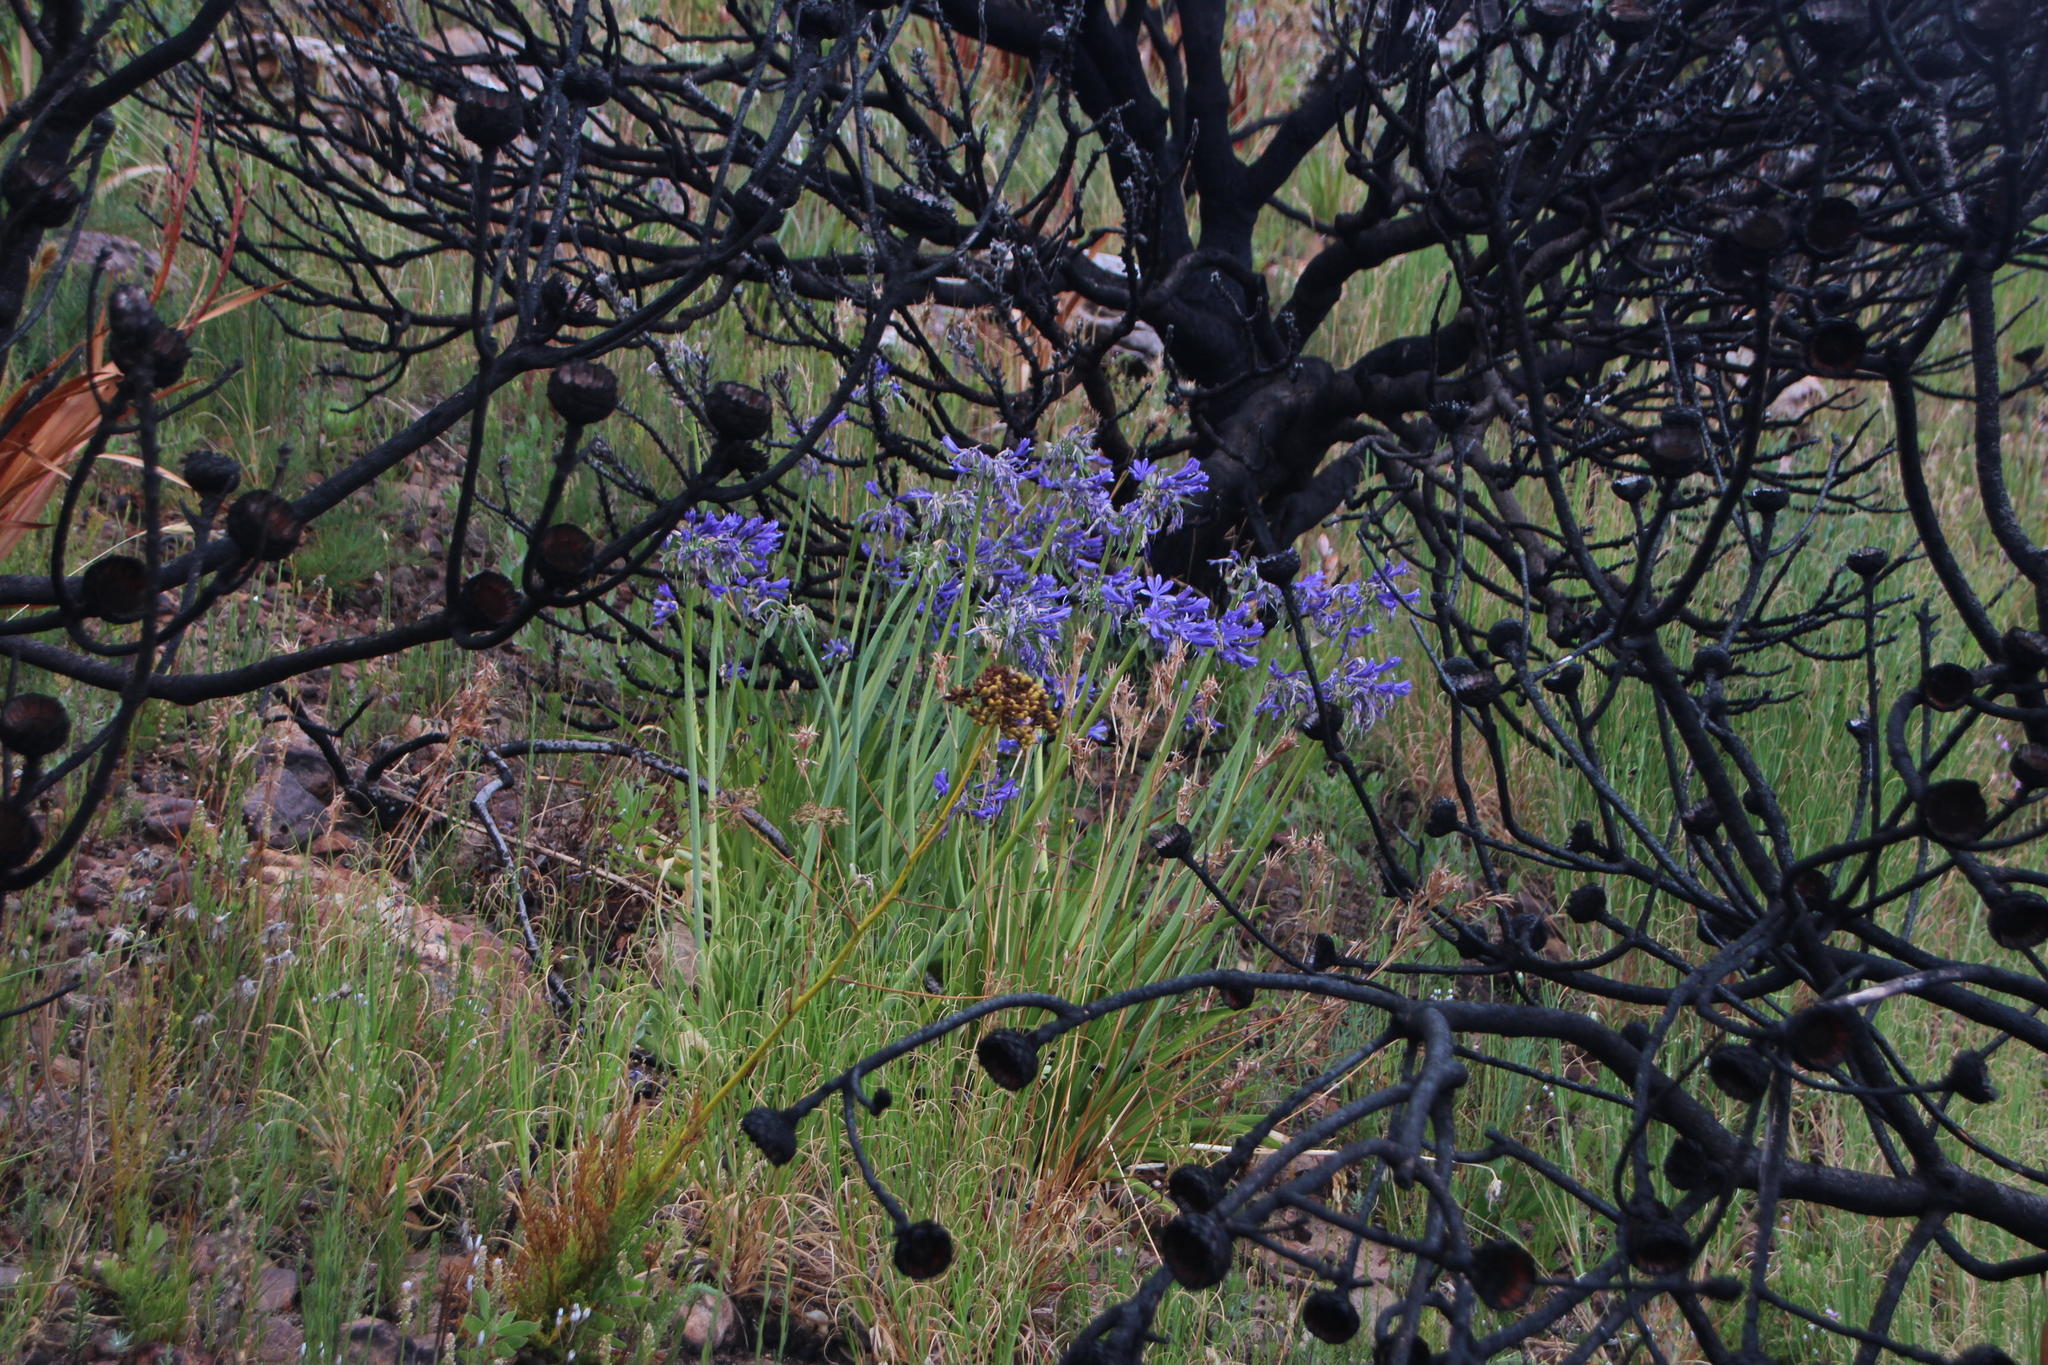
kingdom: Plantae
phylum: Tracheophyta
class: Liliopsida
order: Asparagales
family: Amaryllidaceae
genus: Agapanthus
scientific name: Agapanthus africanus
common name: Lily-of-the-nile
